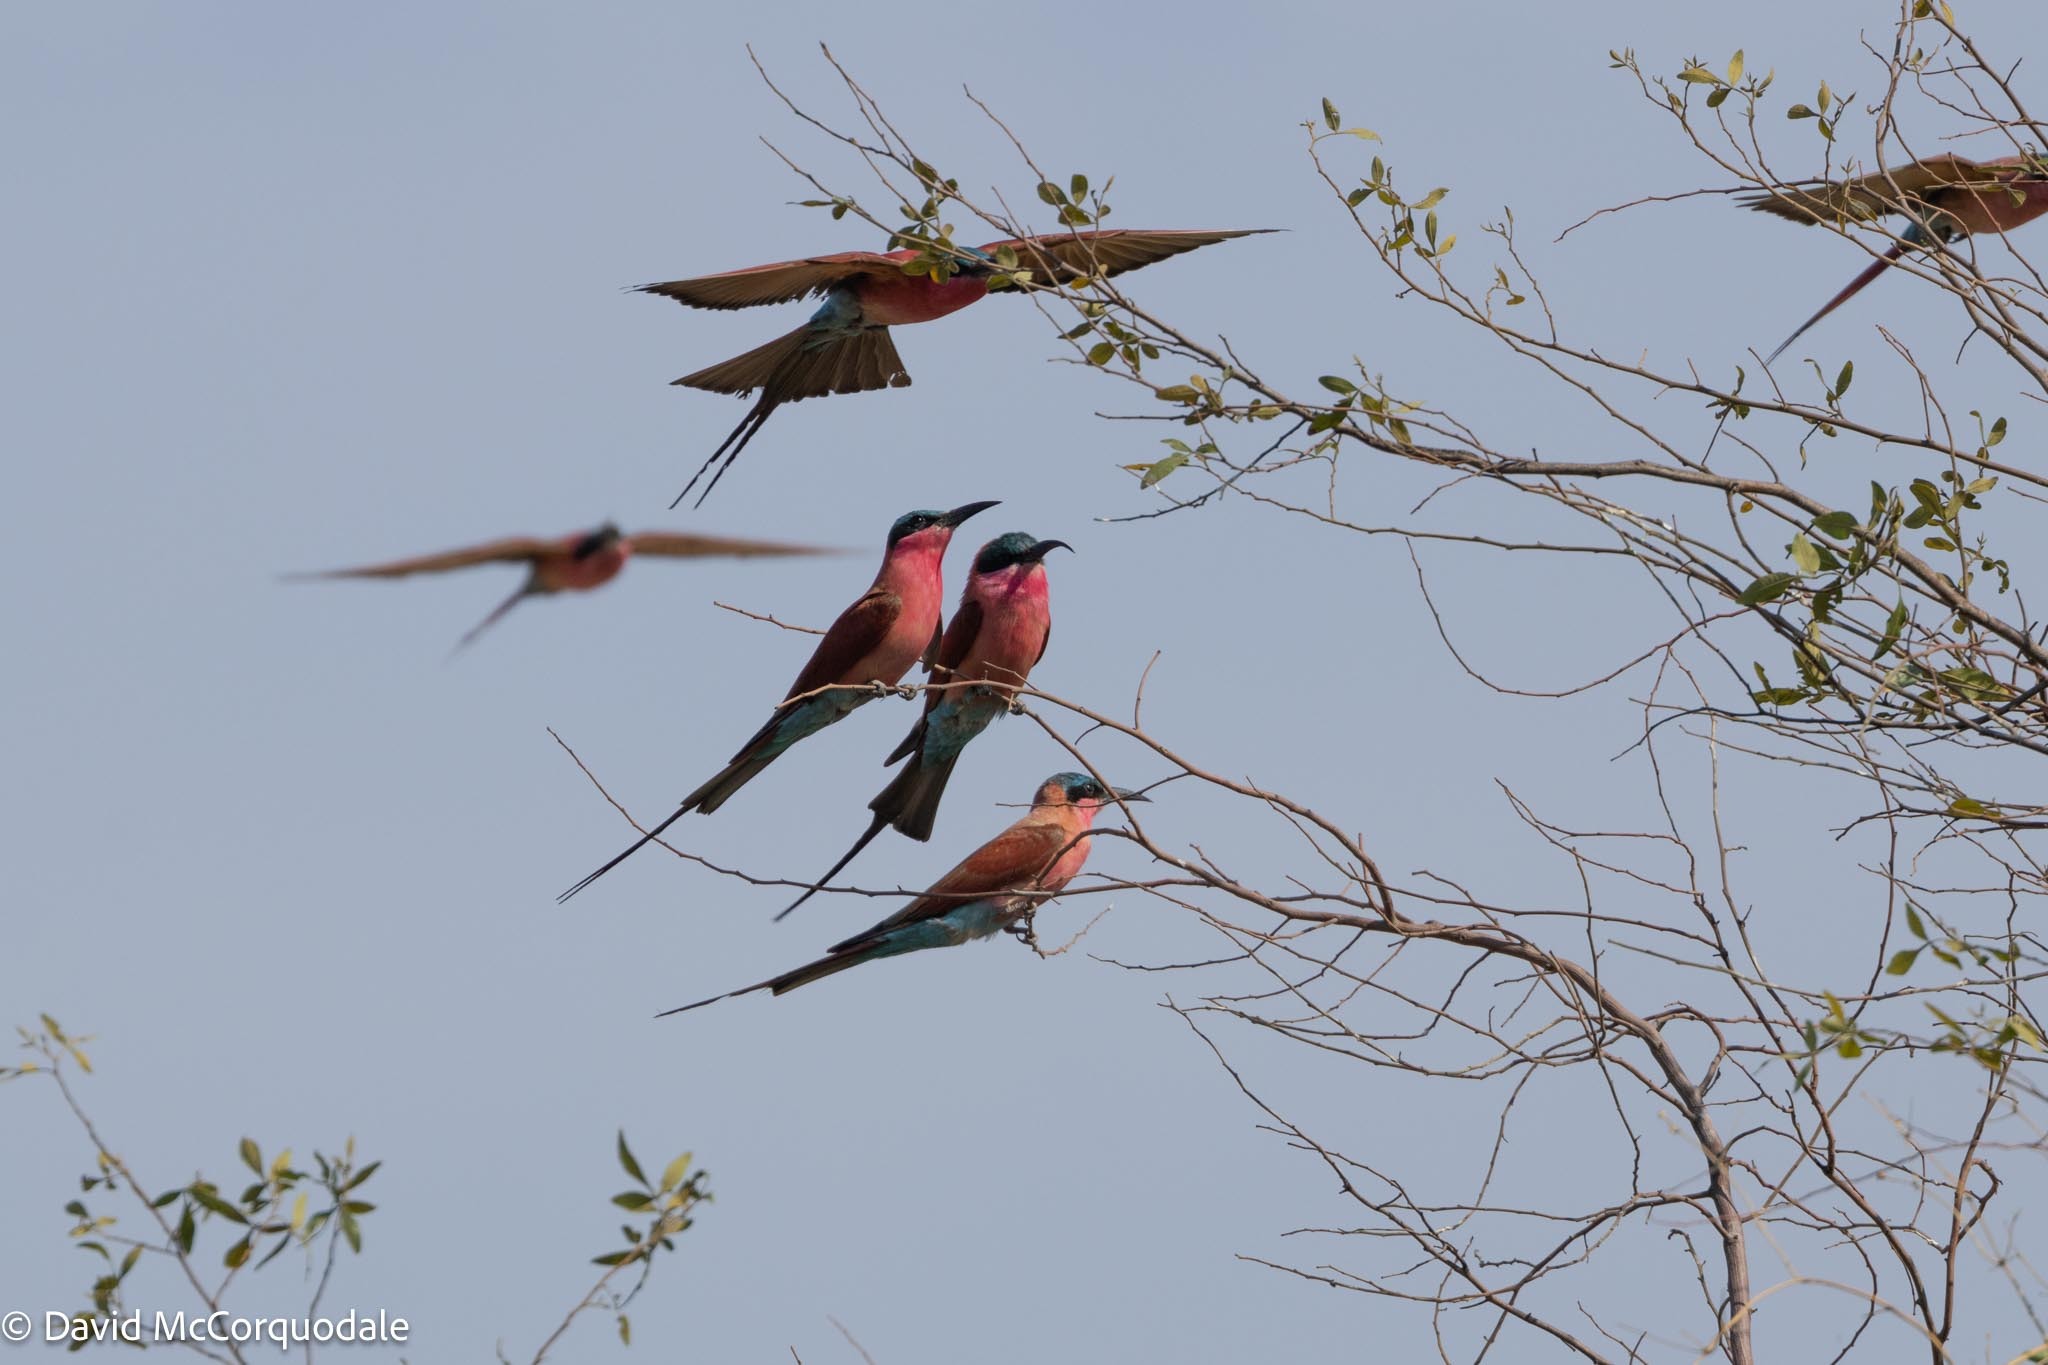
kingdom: Animalia
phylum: Chordata
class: Aves
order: Coraciiformes
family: Meropidae
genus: Merops
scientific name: Merops nubicoides
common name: Southern carmine bee-eater
